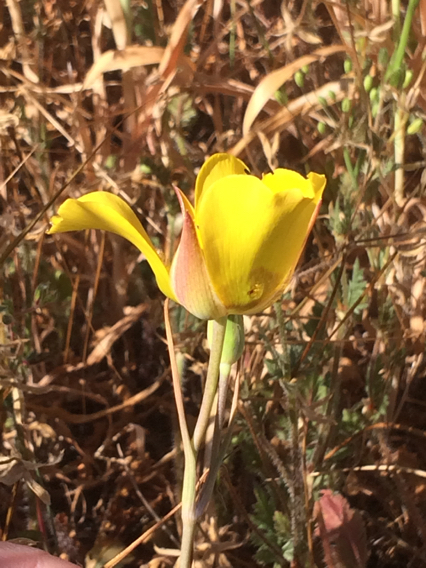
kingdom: Plantae
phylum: Tracheophyta
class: Liliopsida
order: Liliales
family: Liliaceae
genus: Calochortus
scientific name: Calochortus clavatus
